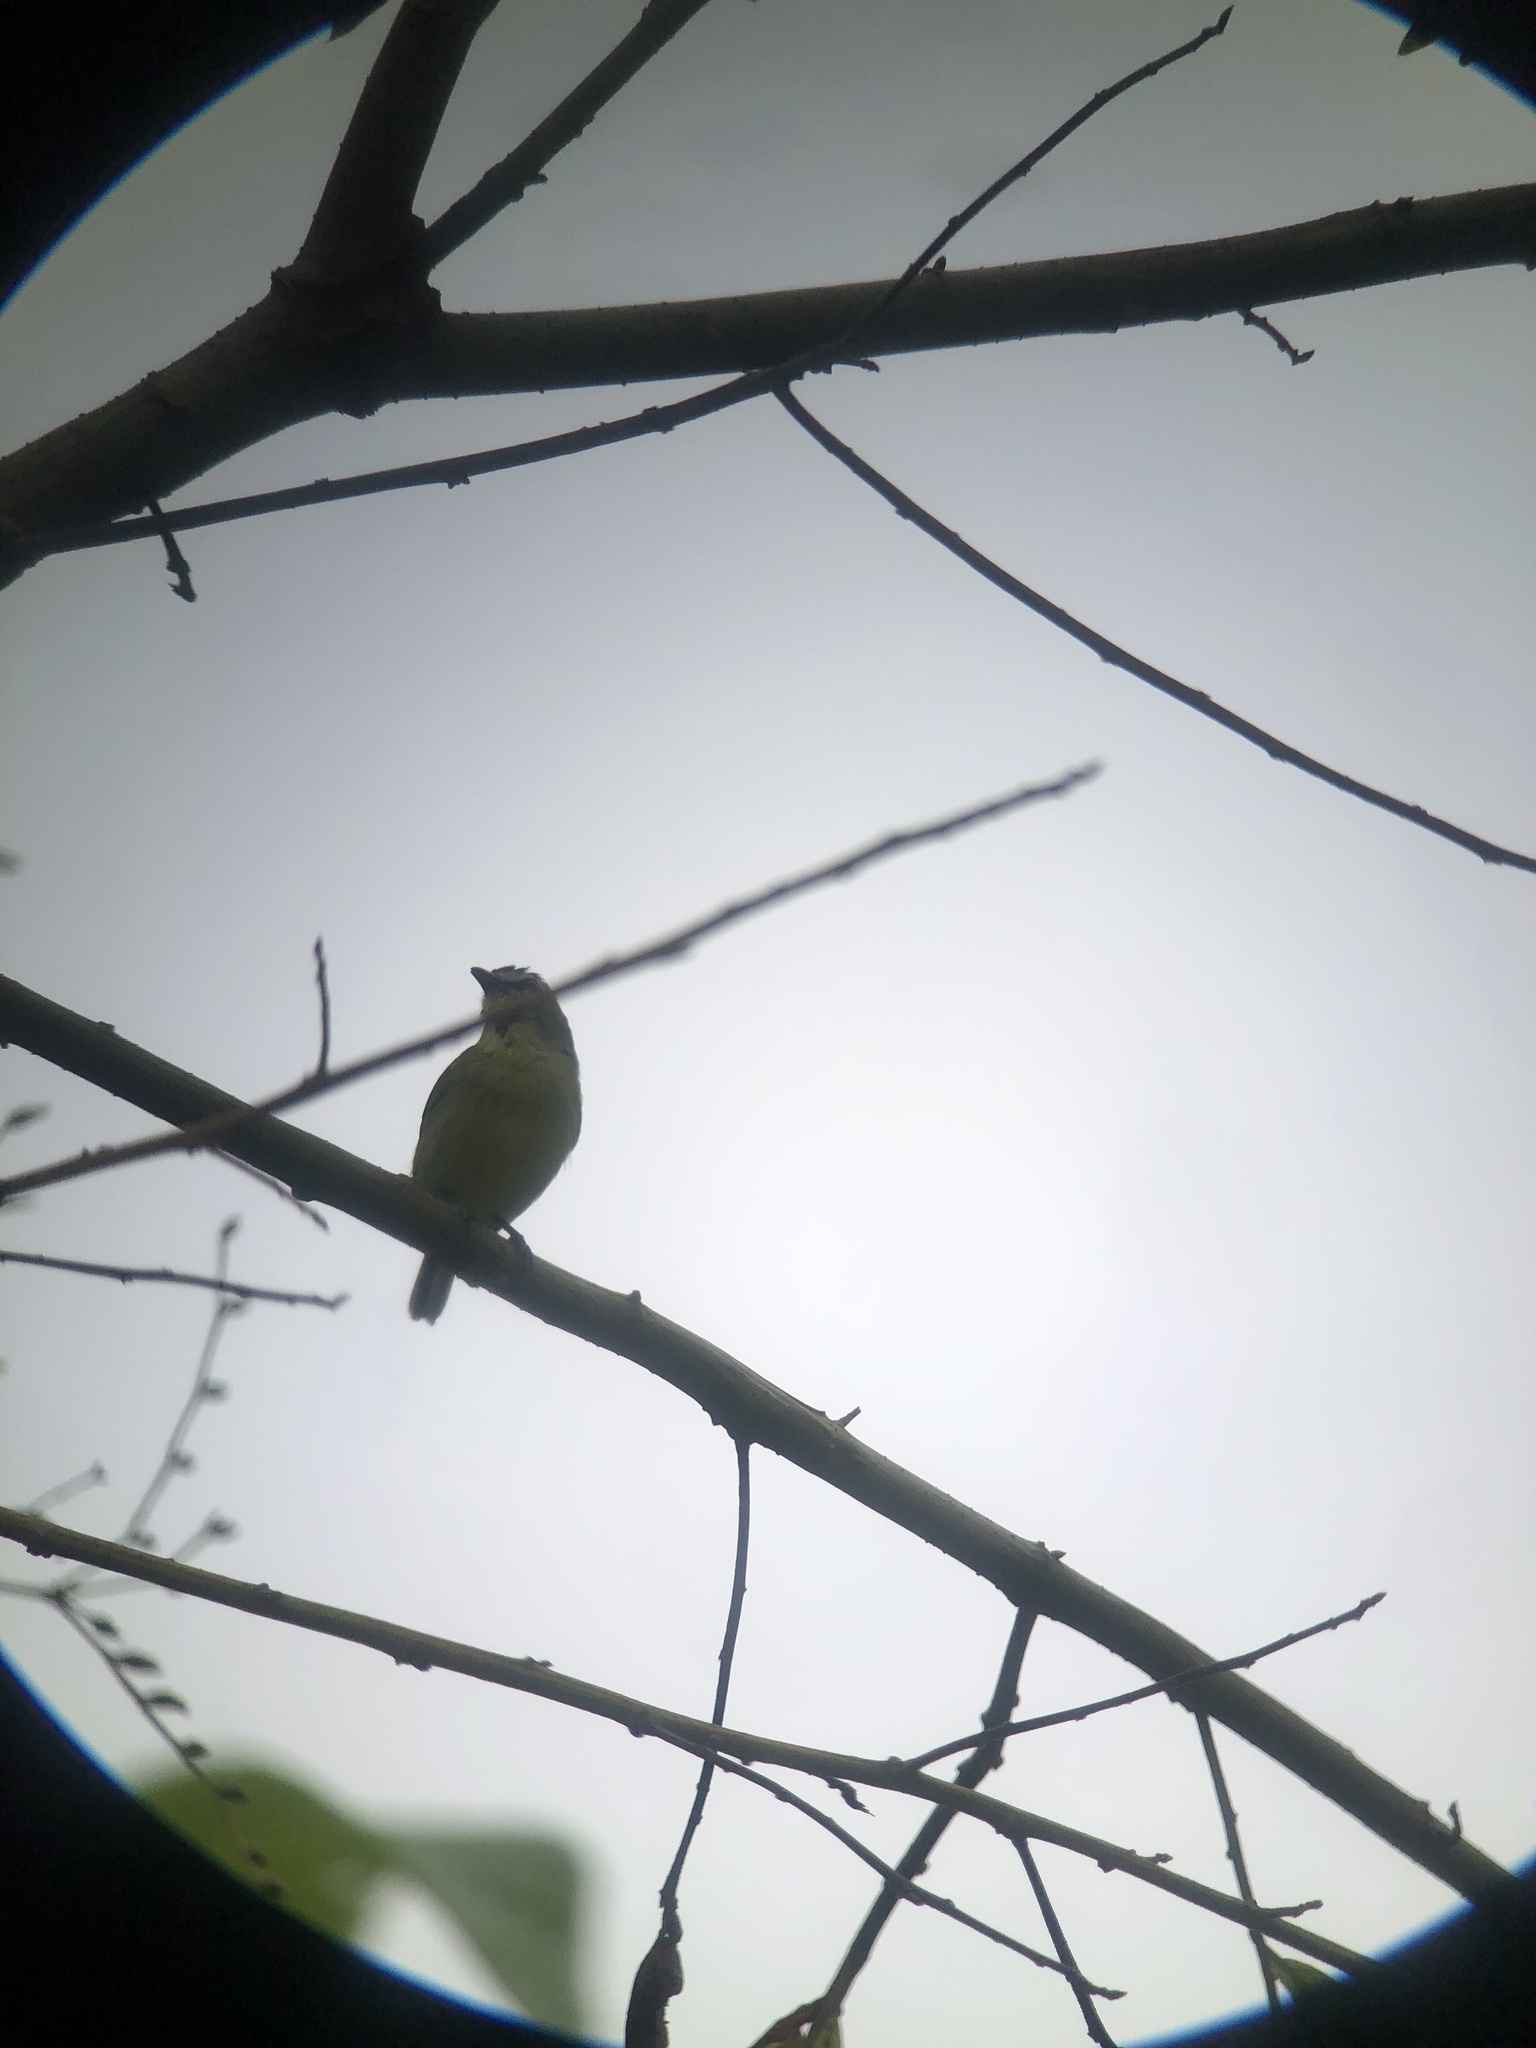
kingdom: Animalia
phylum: Chordata
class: Aves
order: Passeriformes
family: Tyrannidae
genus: Ornithion
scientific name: Ornithion brunneicapillus
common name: Brown-capped tyrannulet
